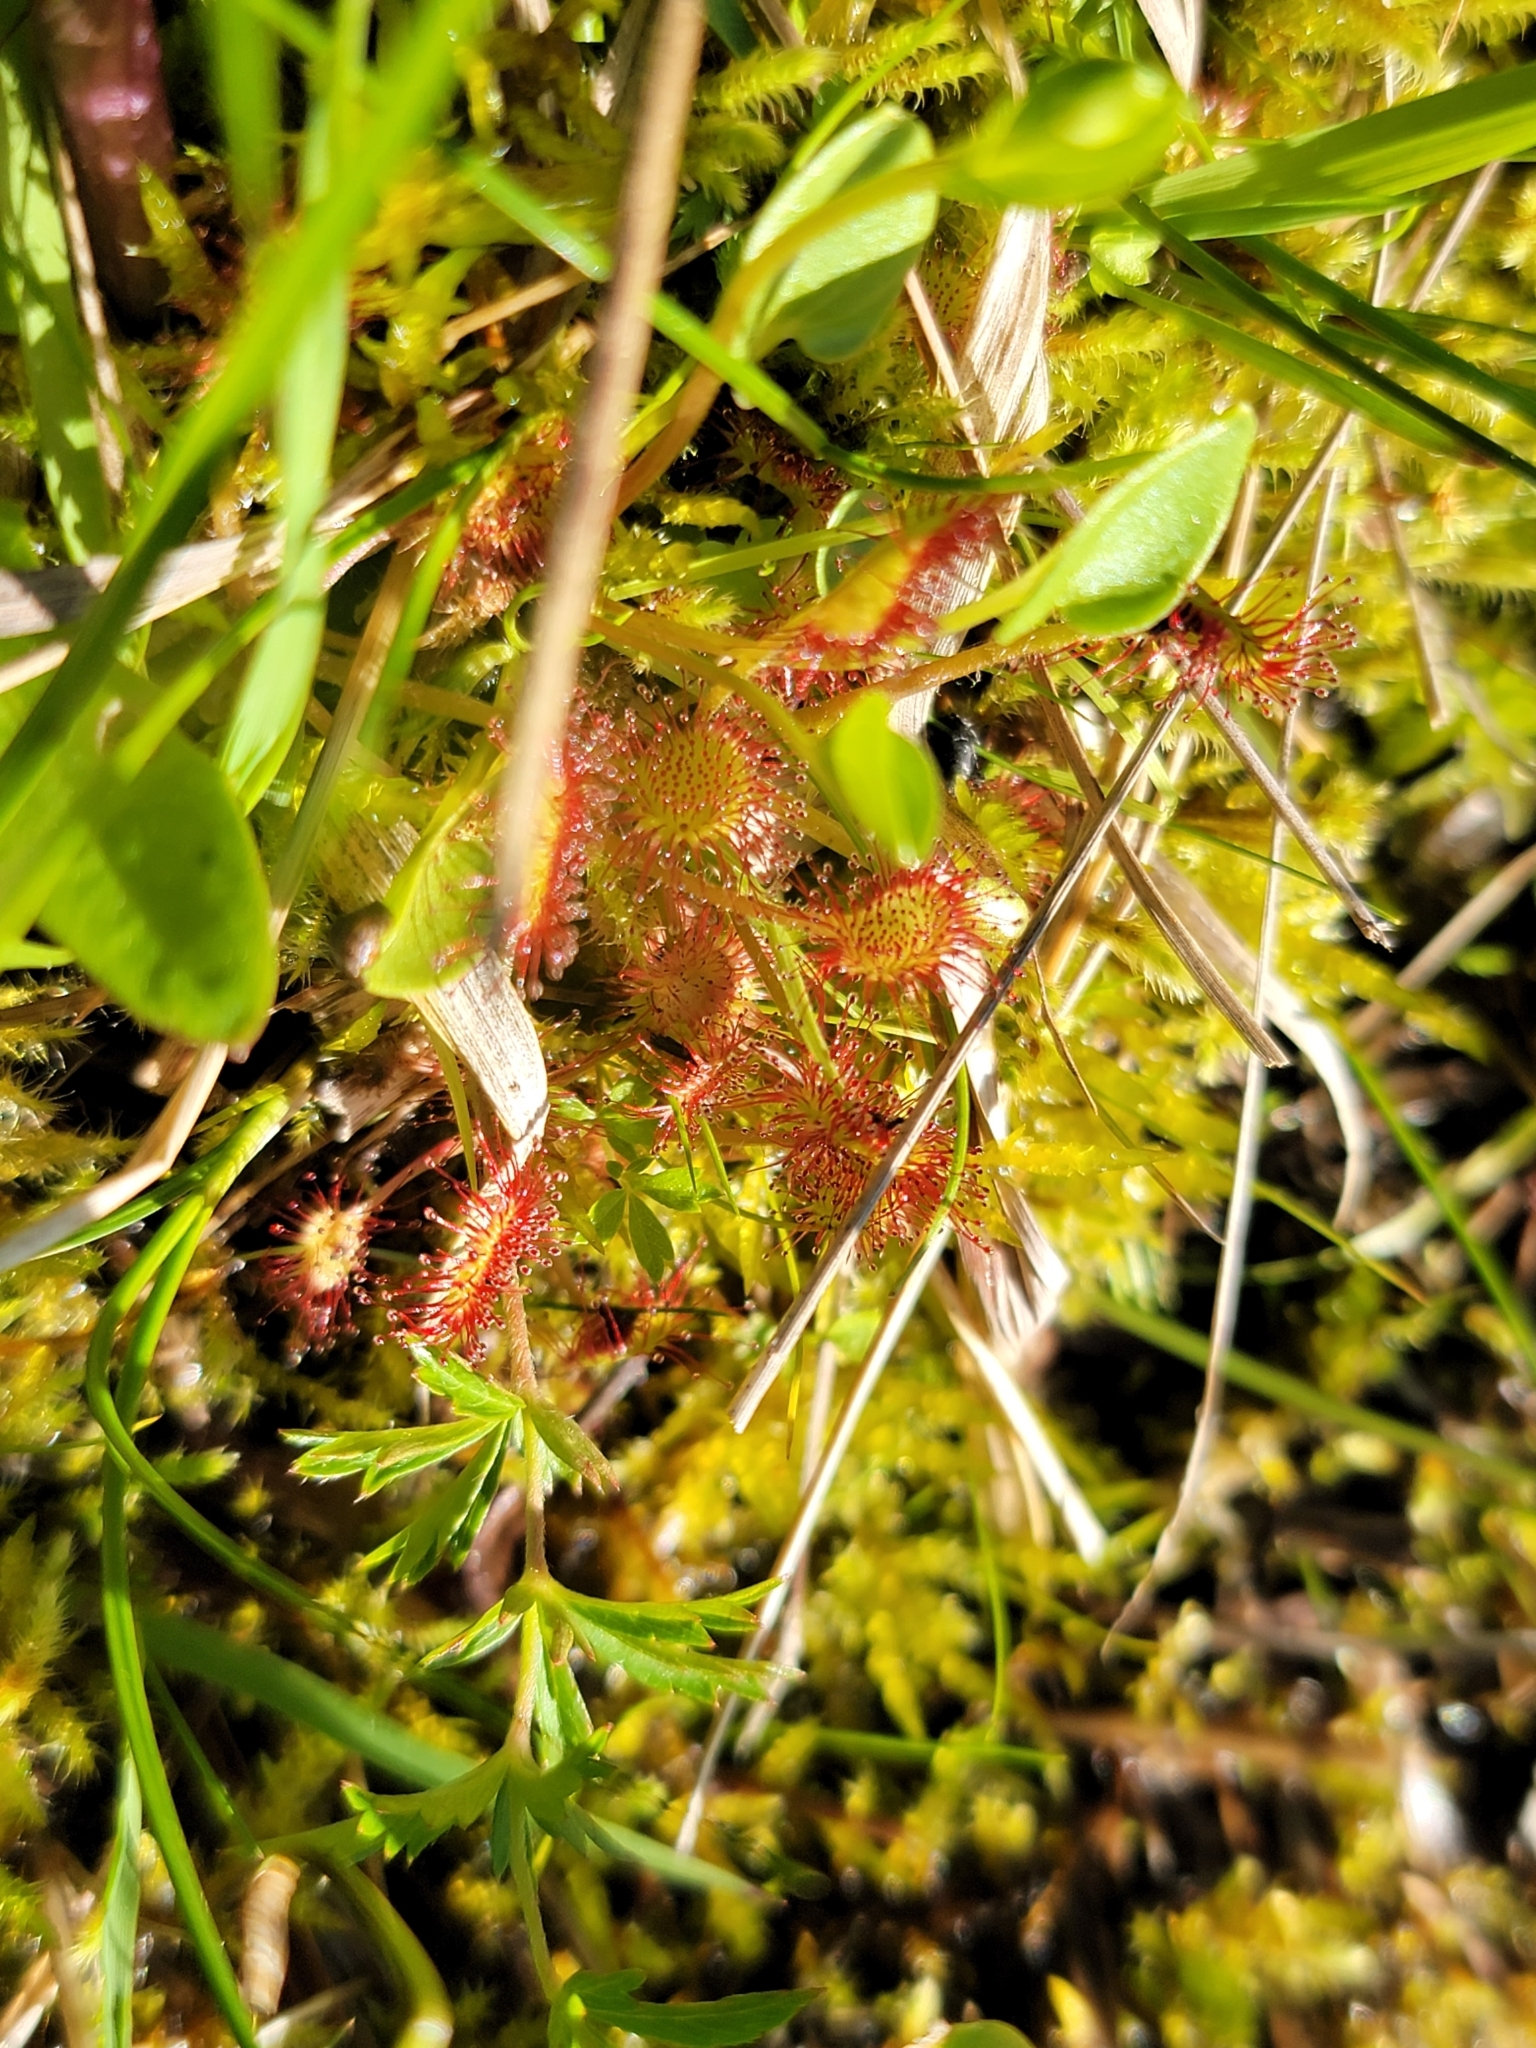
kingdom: Plantae
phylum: Tracheophyta
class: Magnoliopsida
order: Caryophyllales
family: Droseraceae
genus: Drosera
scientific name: Drosera rotundifolia
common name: Round-leaved sundew
